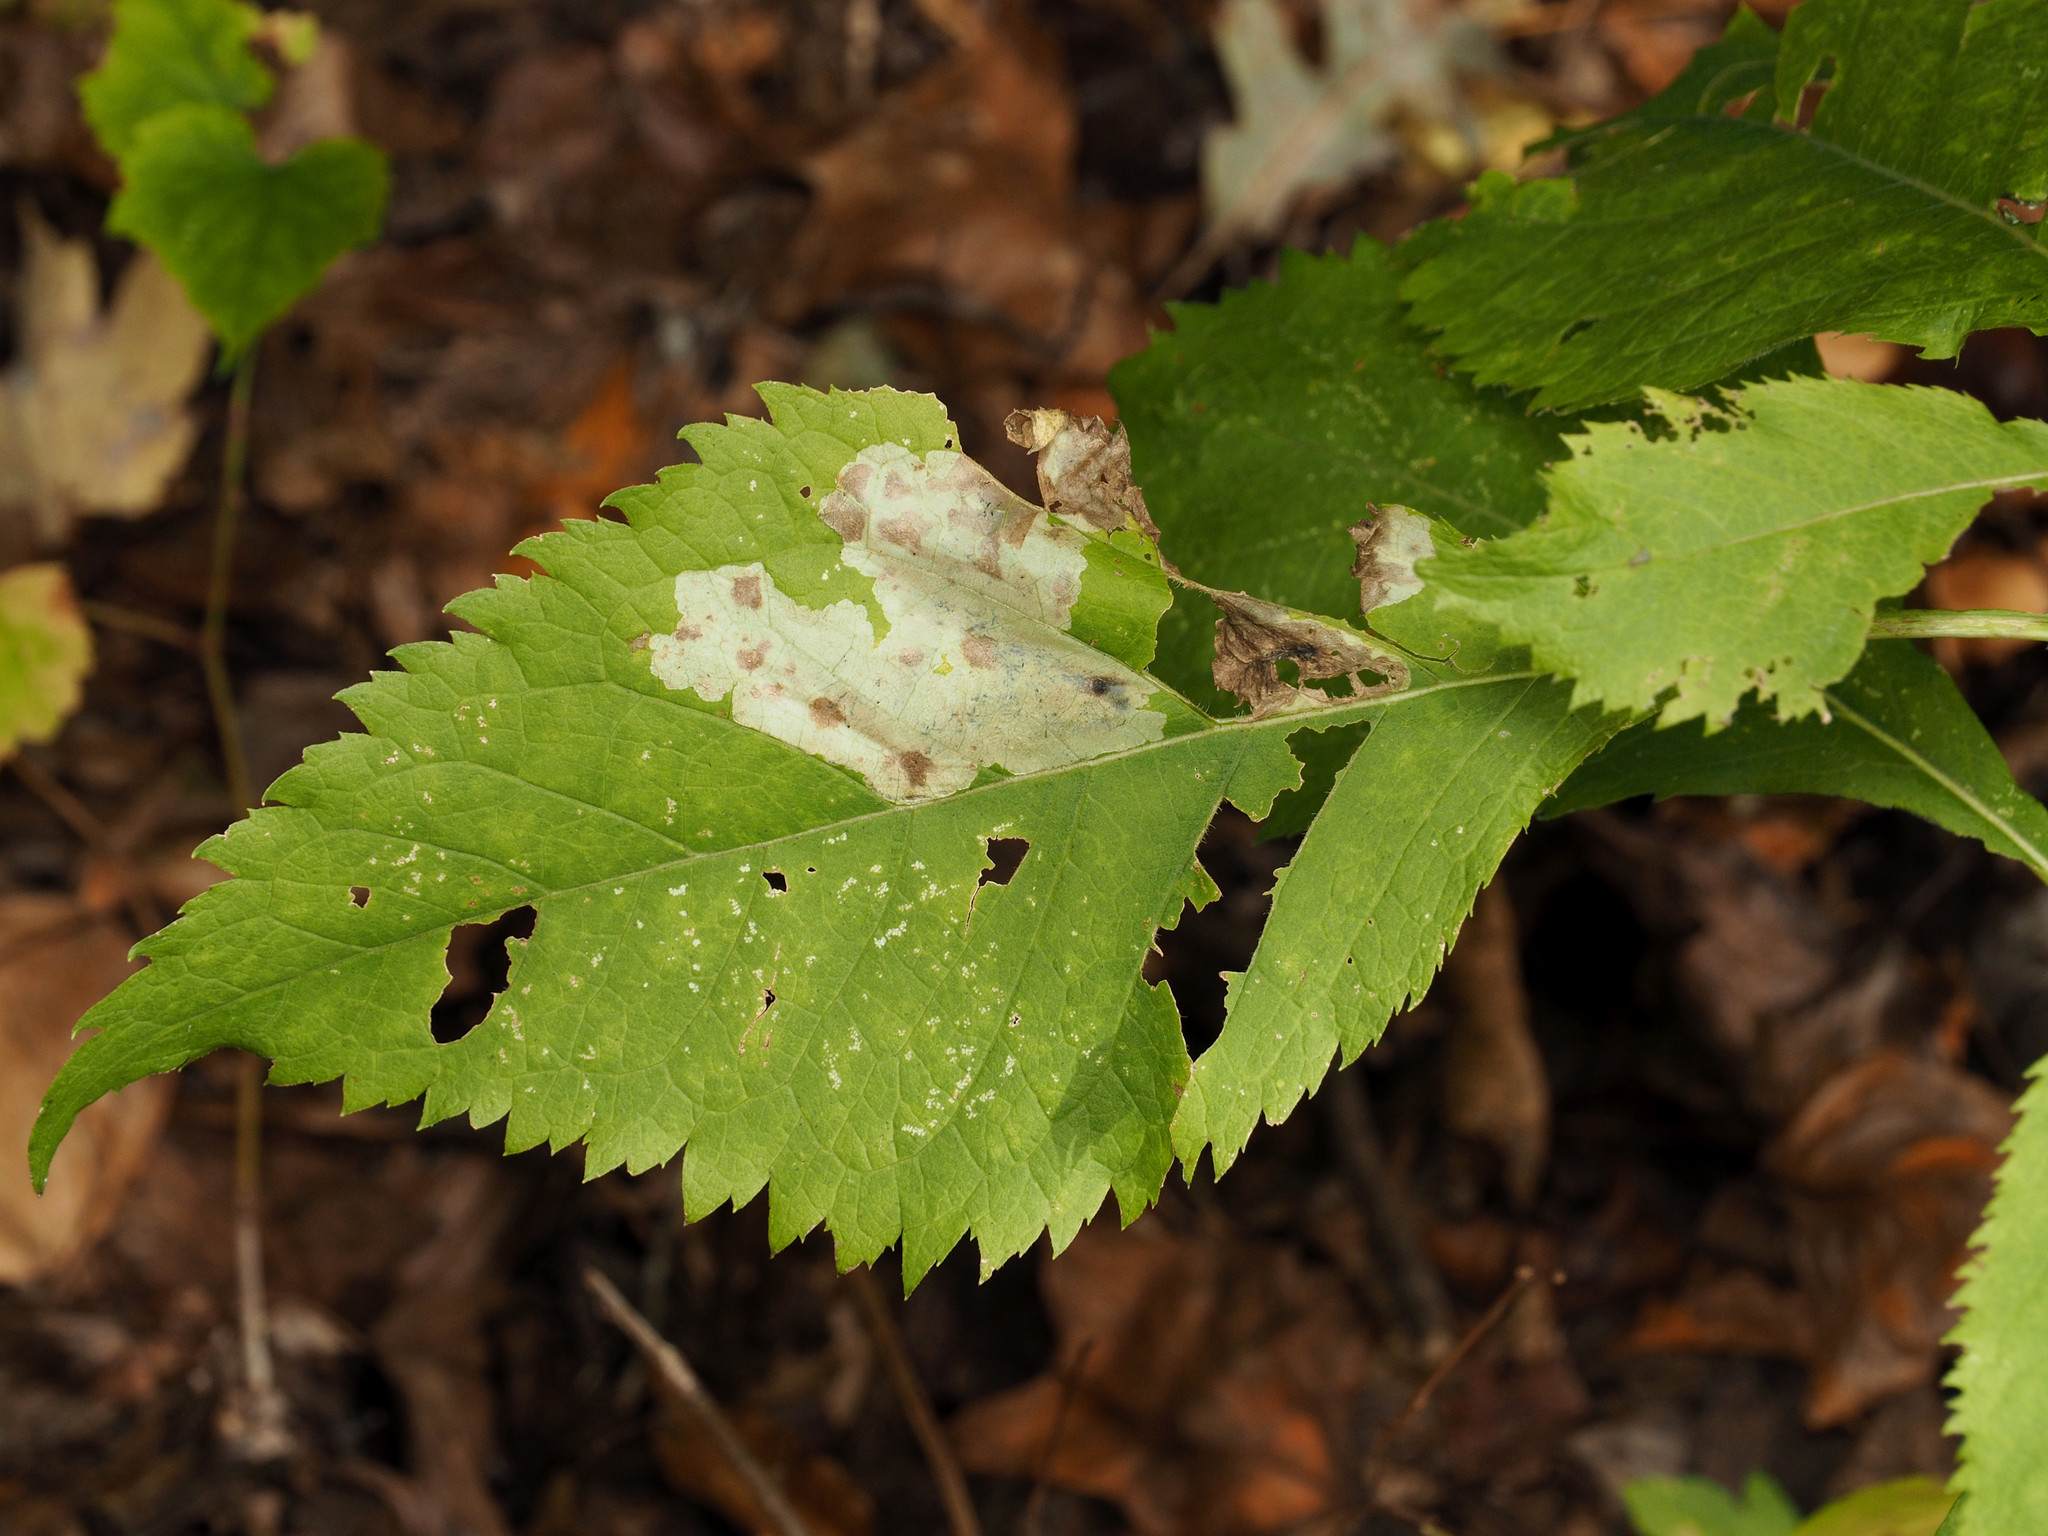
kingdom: Animalia
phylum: Arthropoda
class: Insecta
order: Diptera
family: Agromyzidae
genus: Calycomyza
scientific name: Calycomyza flavinotum
